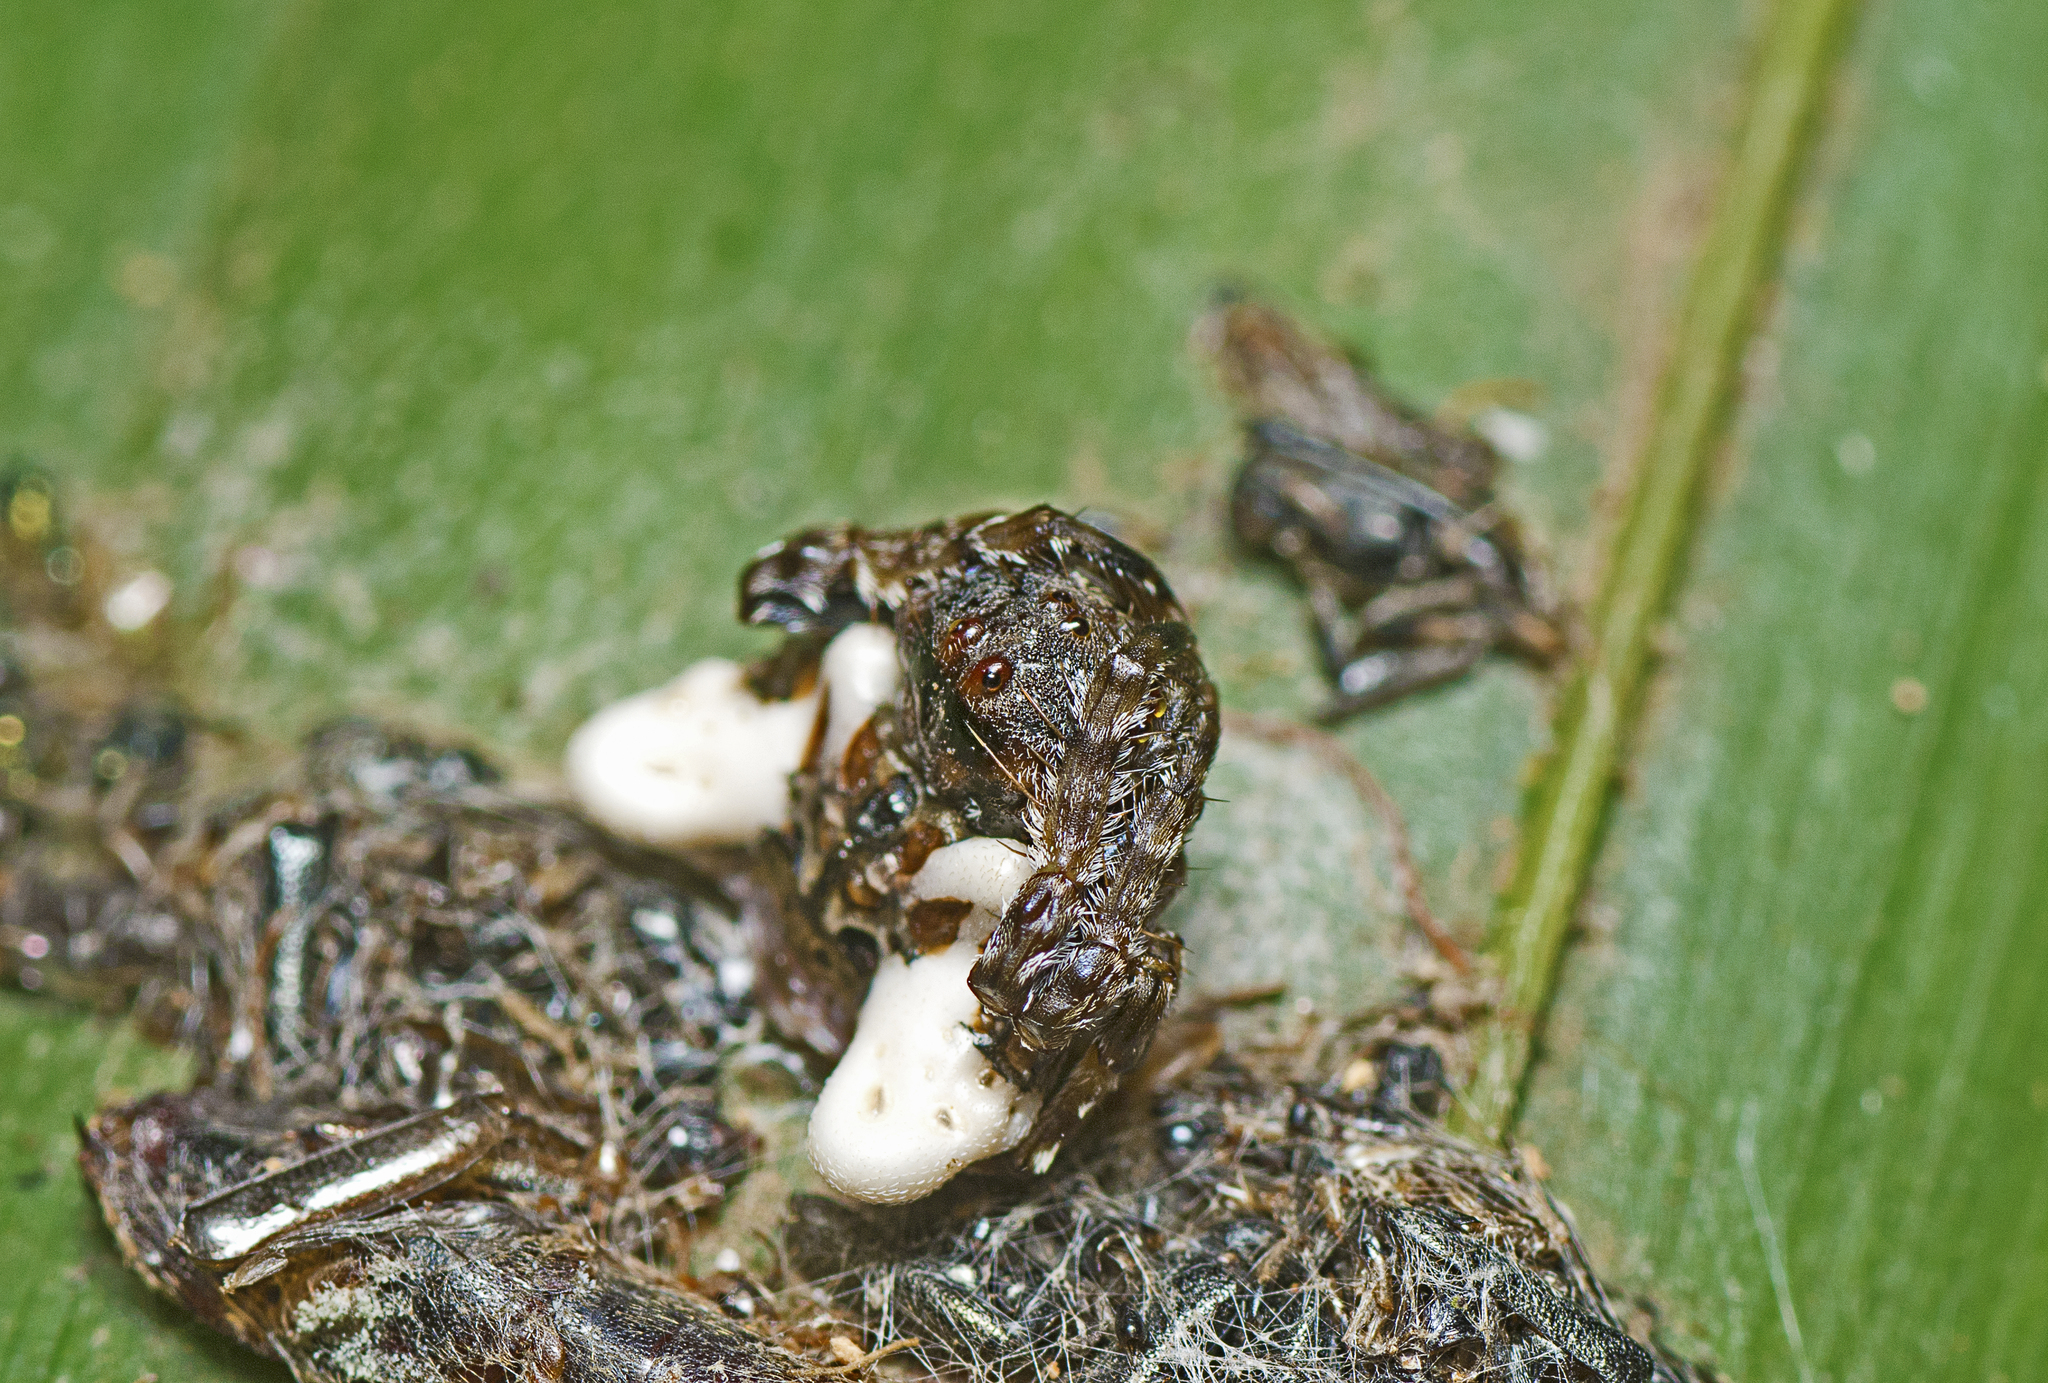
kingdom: Animalia
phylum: Arthropoda
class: Arachnida
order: Araneae
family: Arkyidae
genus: Arkys
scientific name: Arkys curtulus
